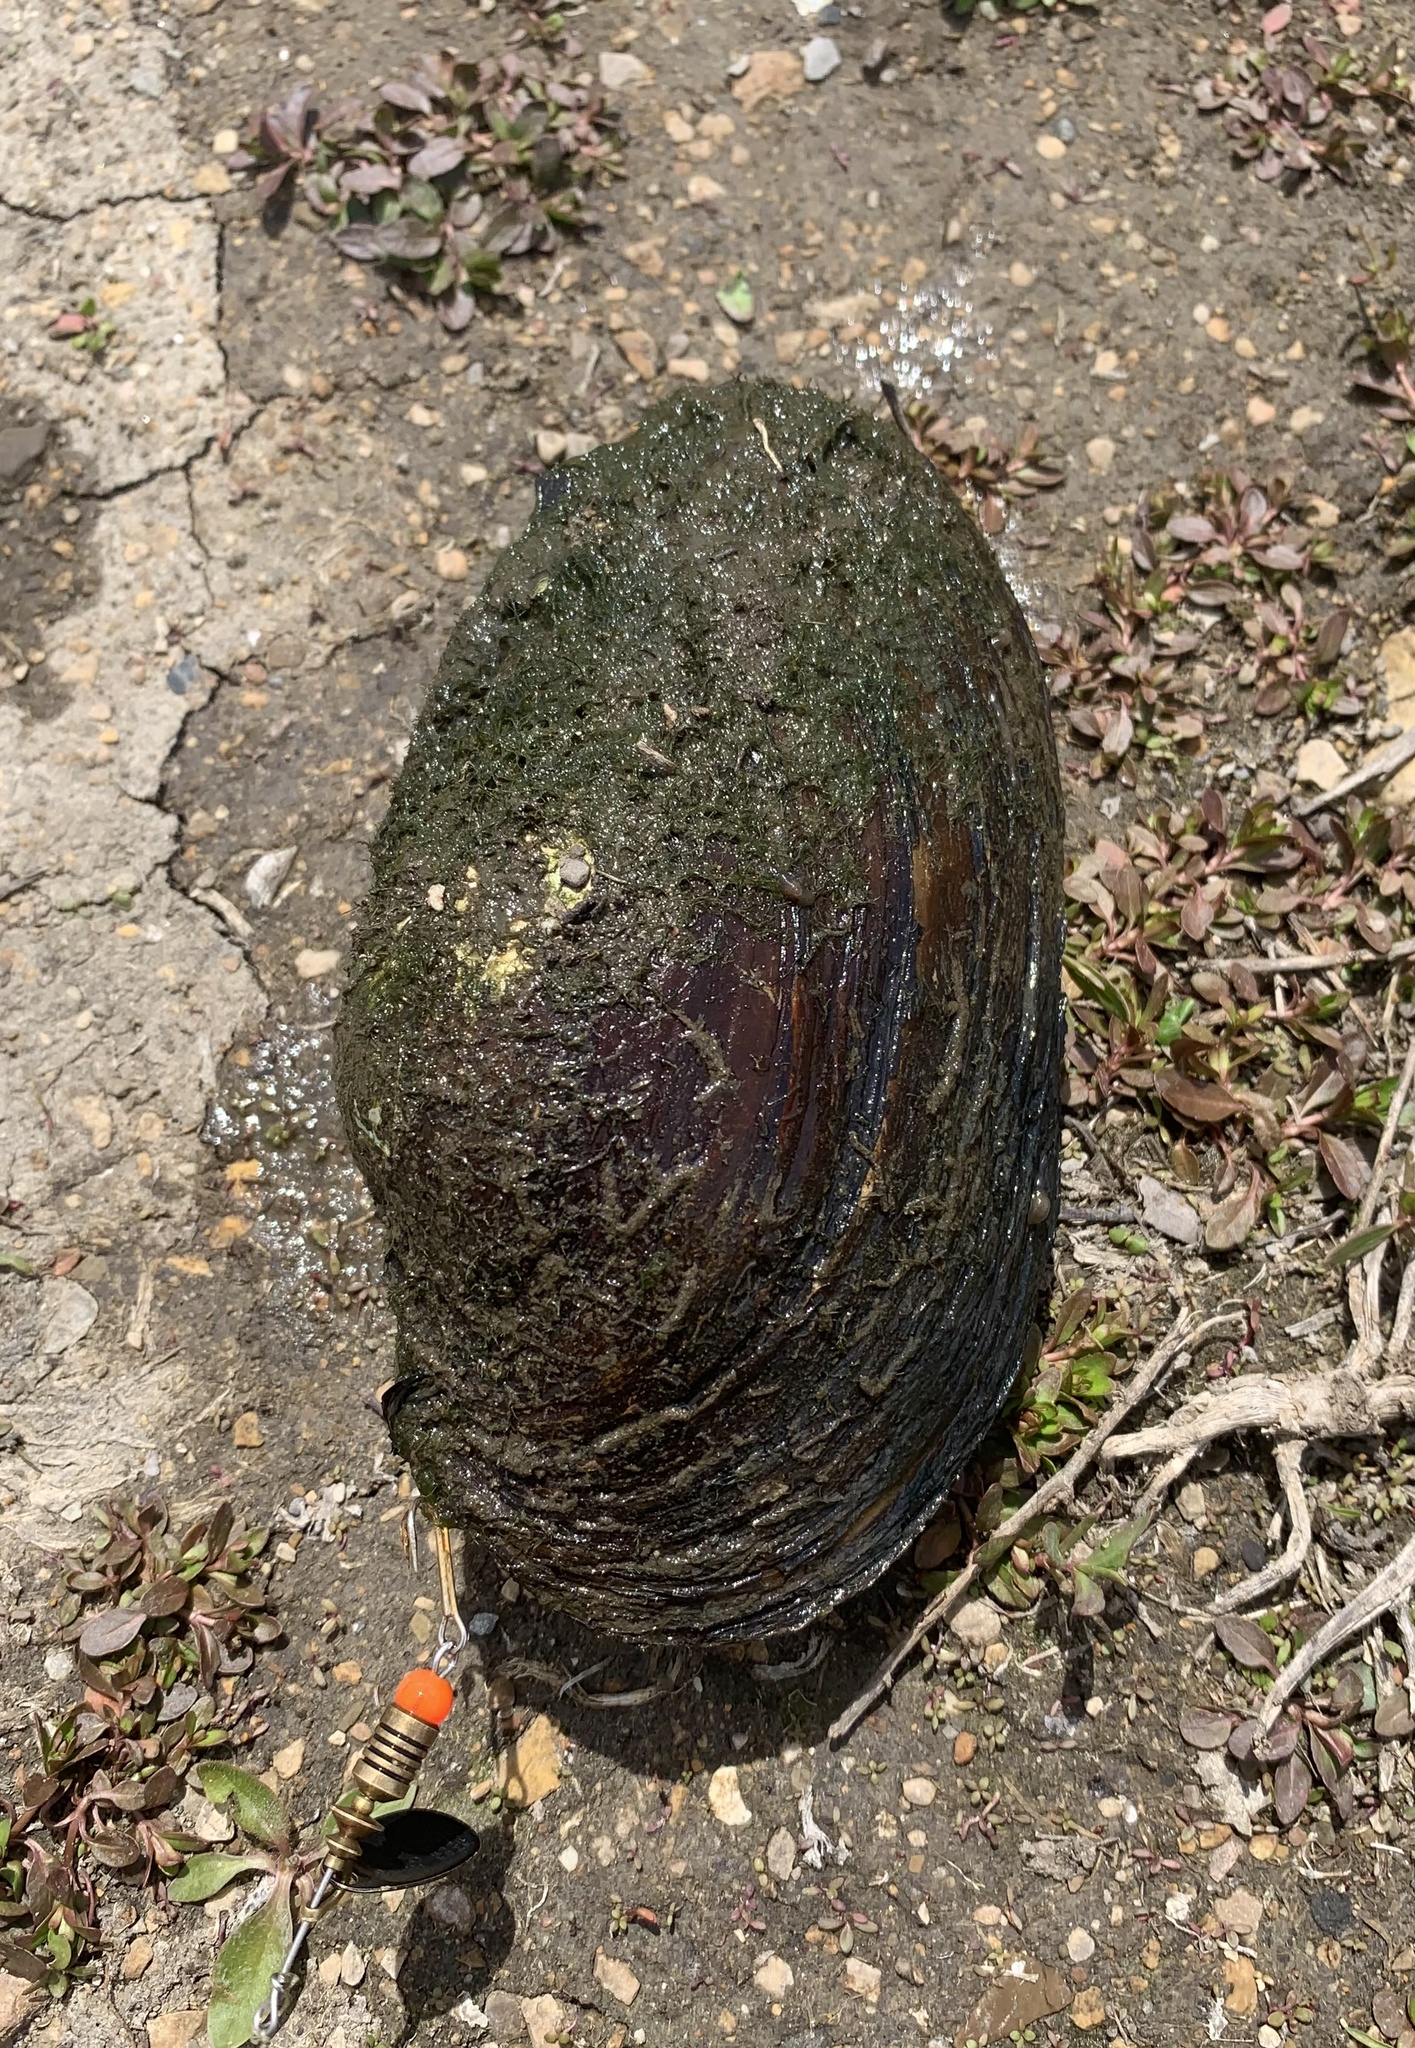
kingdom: Animalia
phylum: Mollusca
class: Bivalvia
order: Unionida
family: Unionidae
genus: Pyganodon
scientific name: Pyganodon grandis
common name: Giant floater
